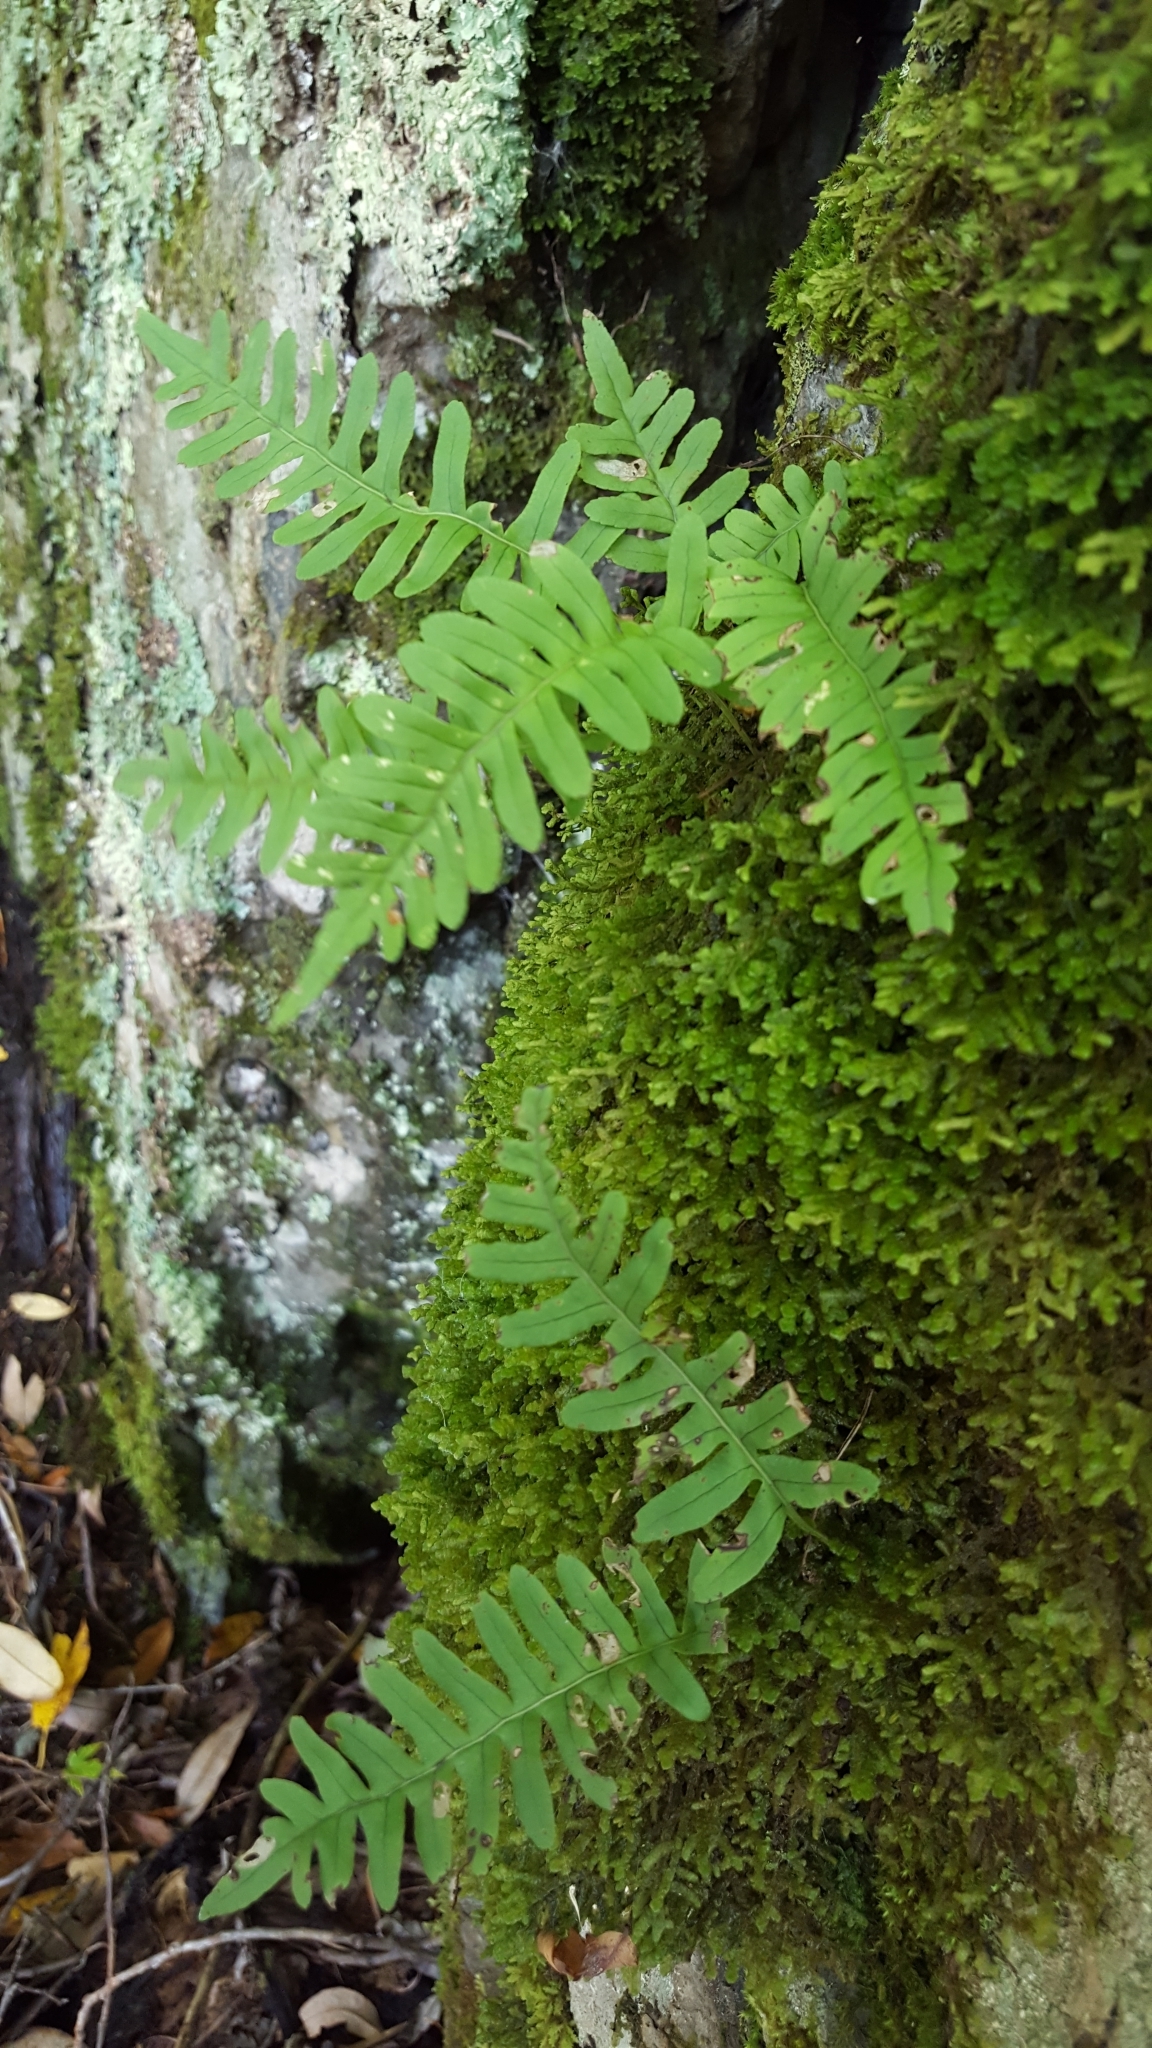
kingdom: Plantae
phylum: Tracheophyta
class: Polypodiopsida
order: Polypodiales
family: Polypodiaceae
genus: Polypodium
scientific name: Polypodium virginianum
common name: American wall fern
